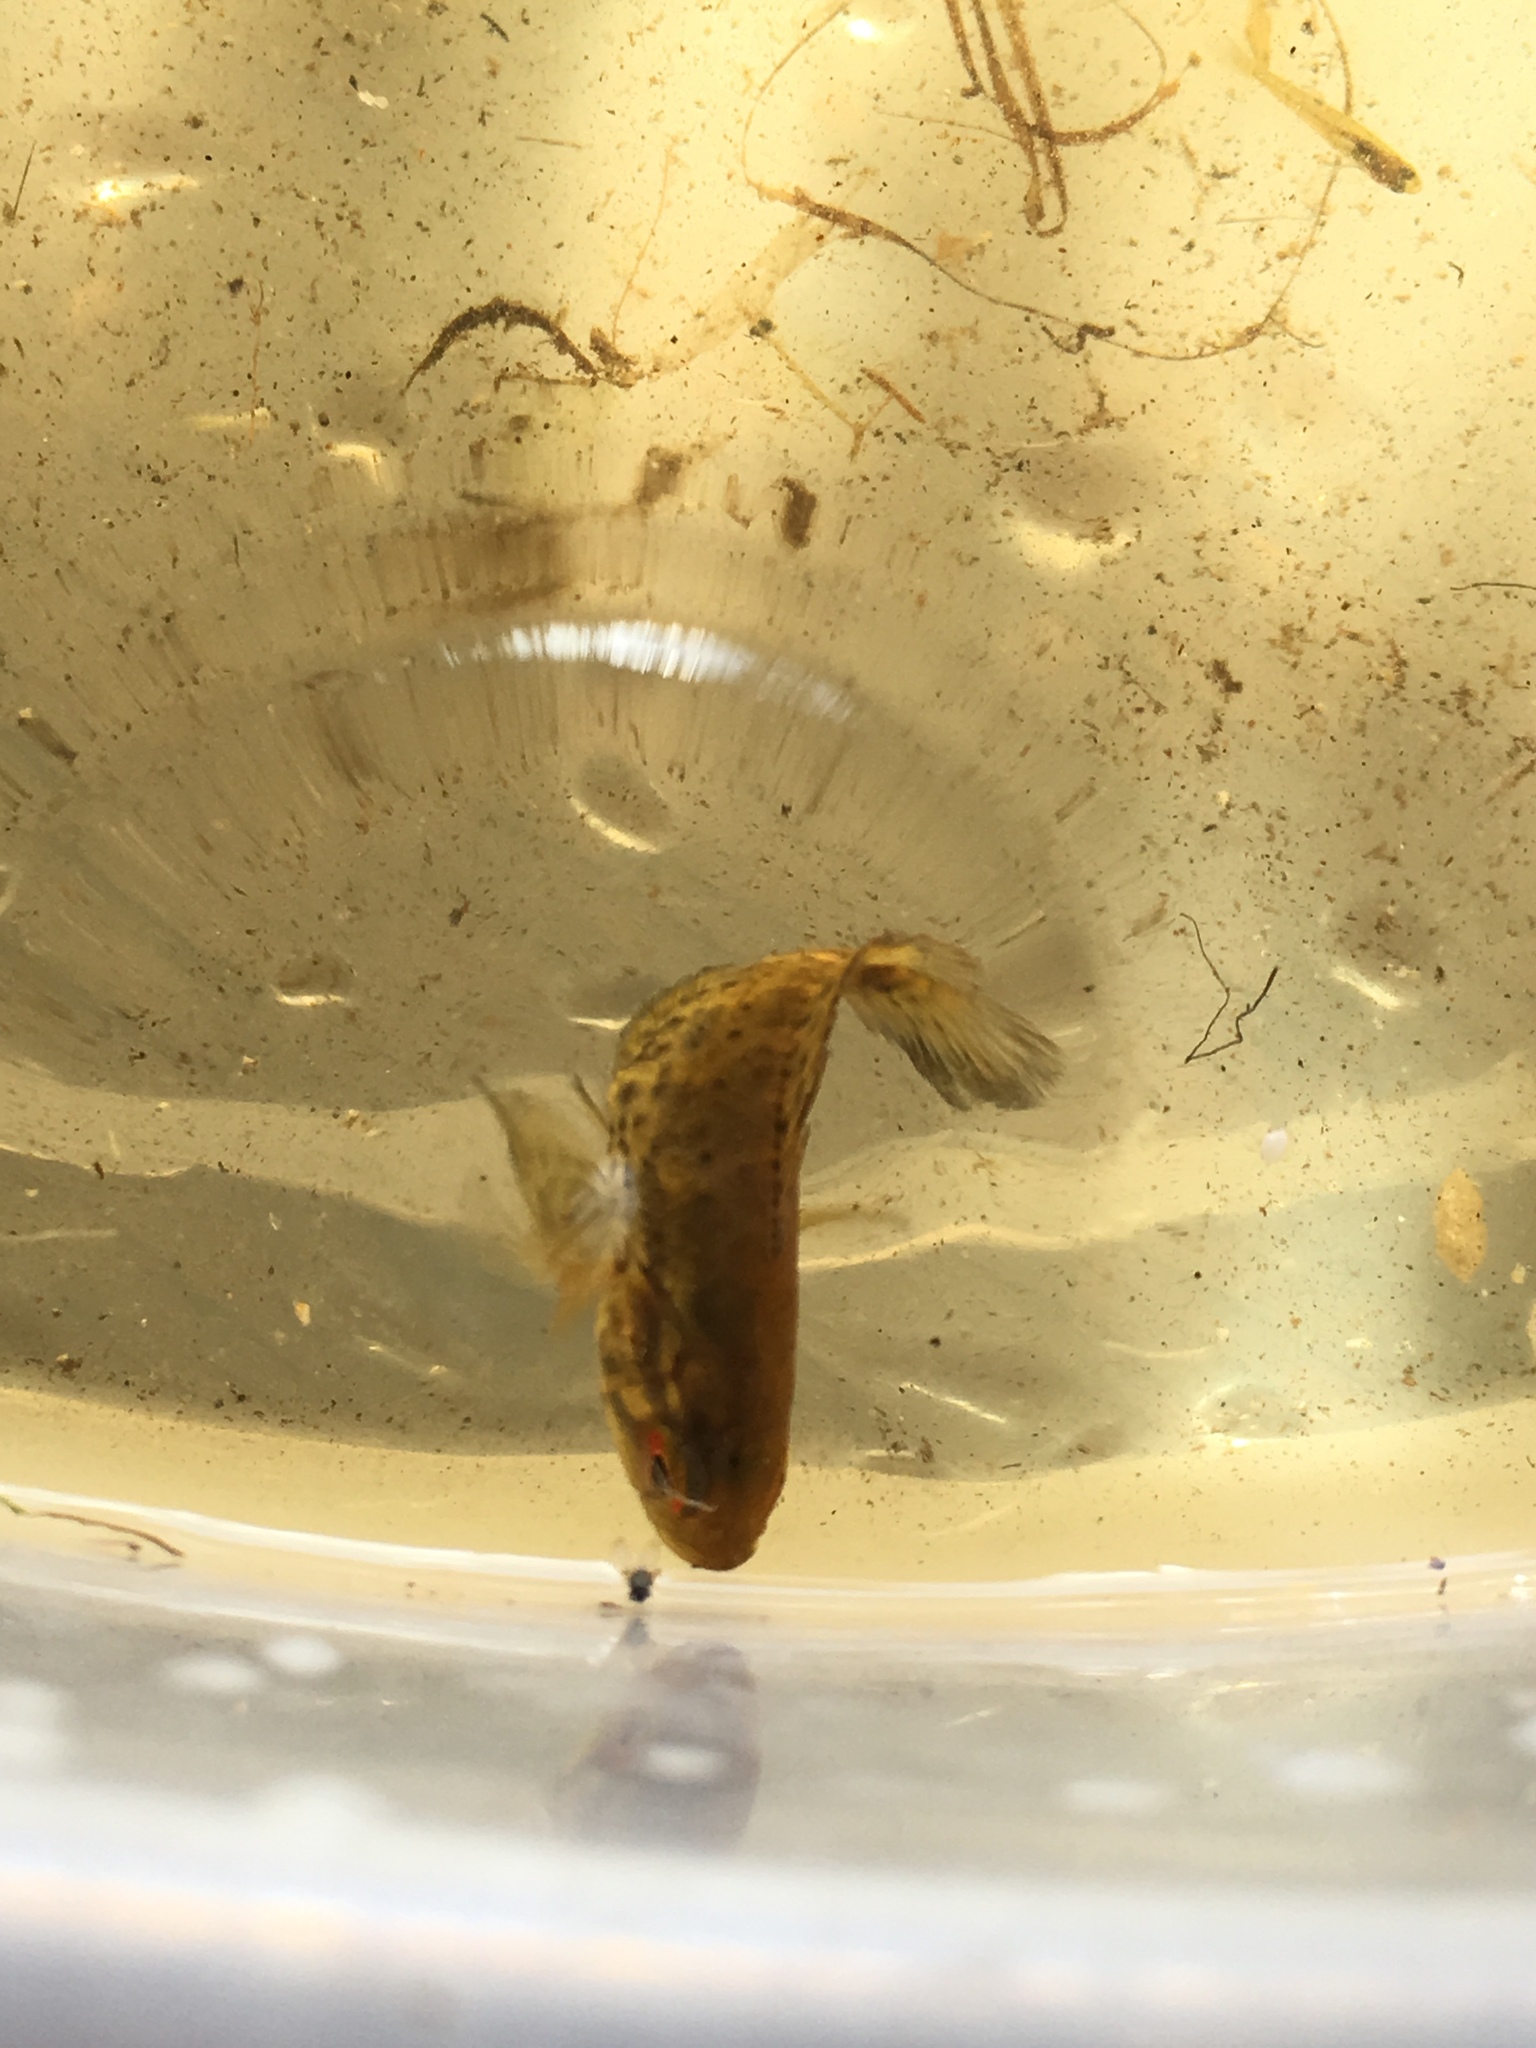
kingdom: Animalia
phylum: Chordata
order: Perciformes
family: Cichlidae
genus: Parachromis
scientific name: Parachromis managuensis
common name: Jaguar guapote
